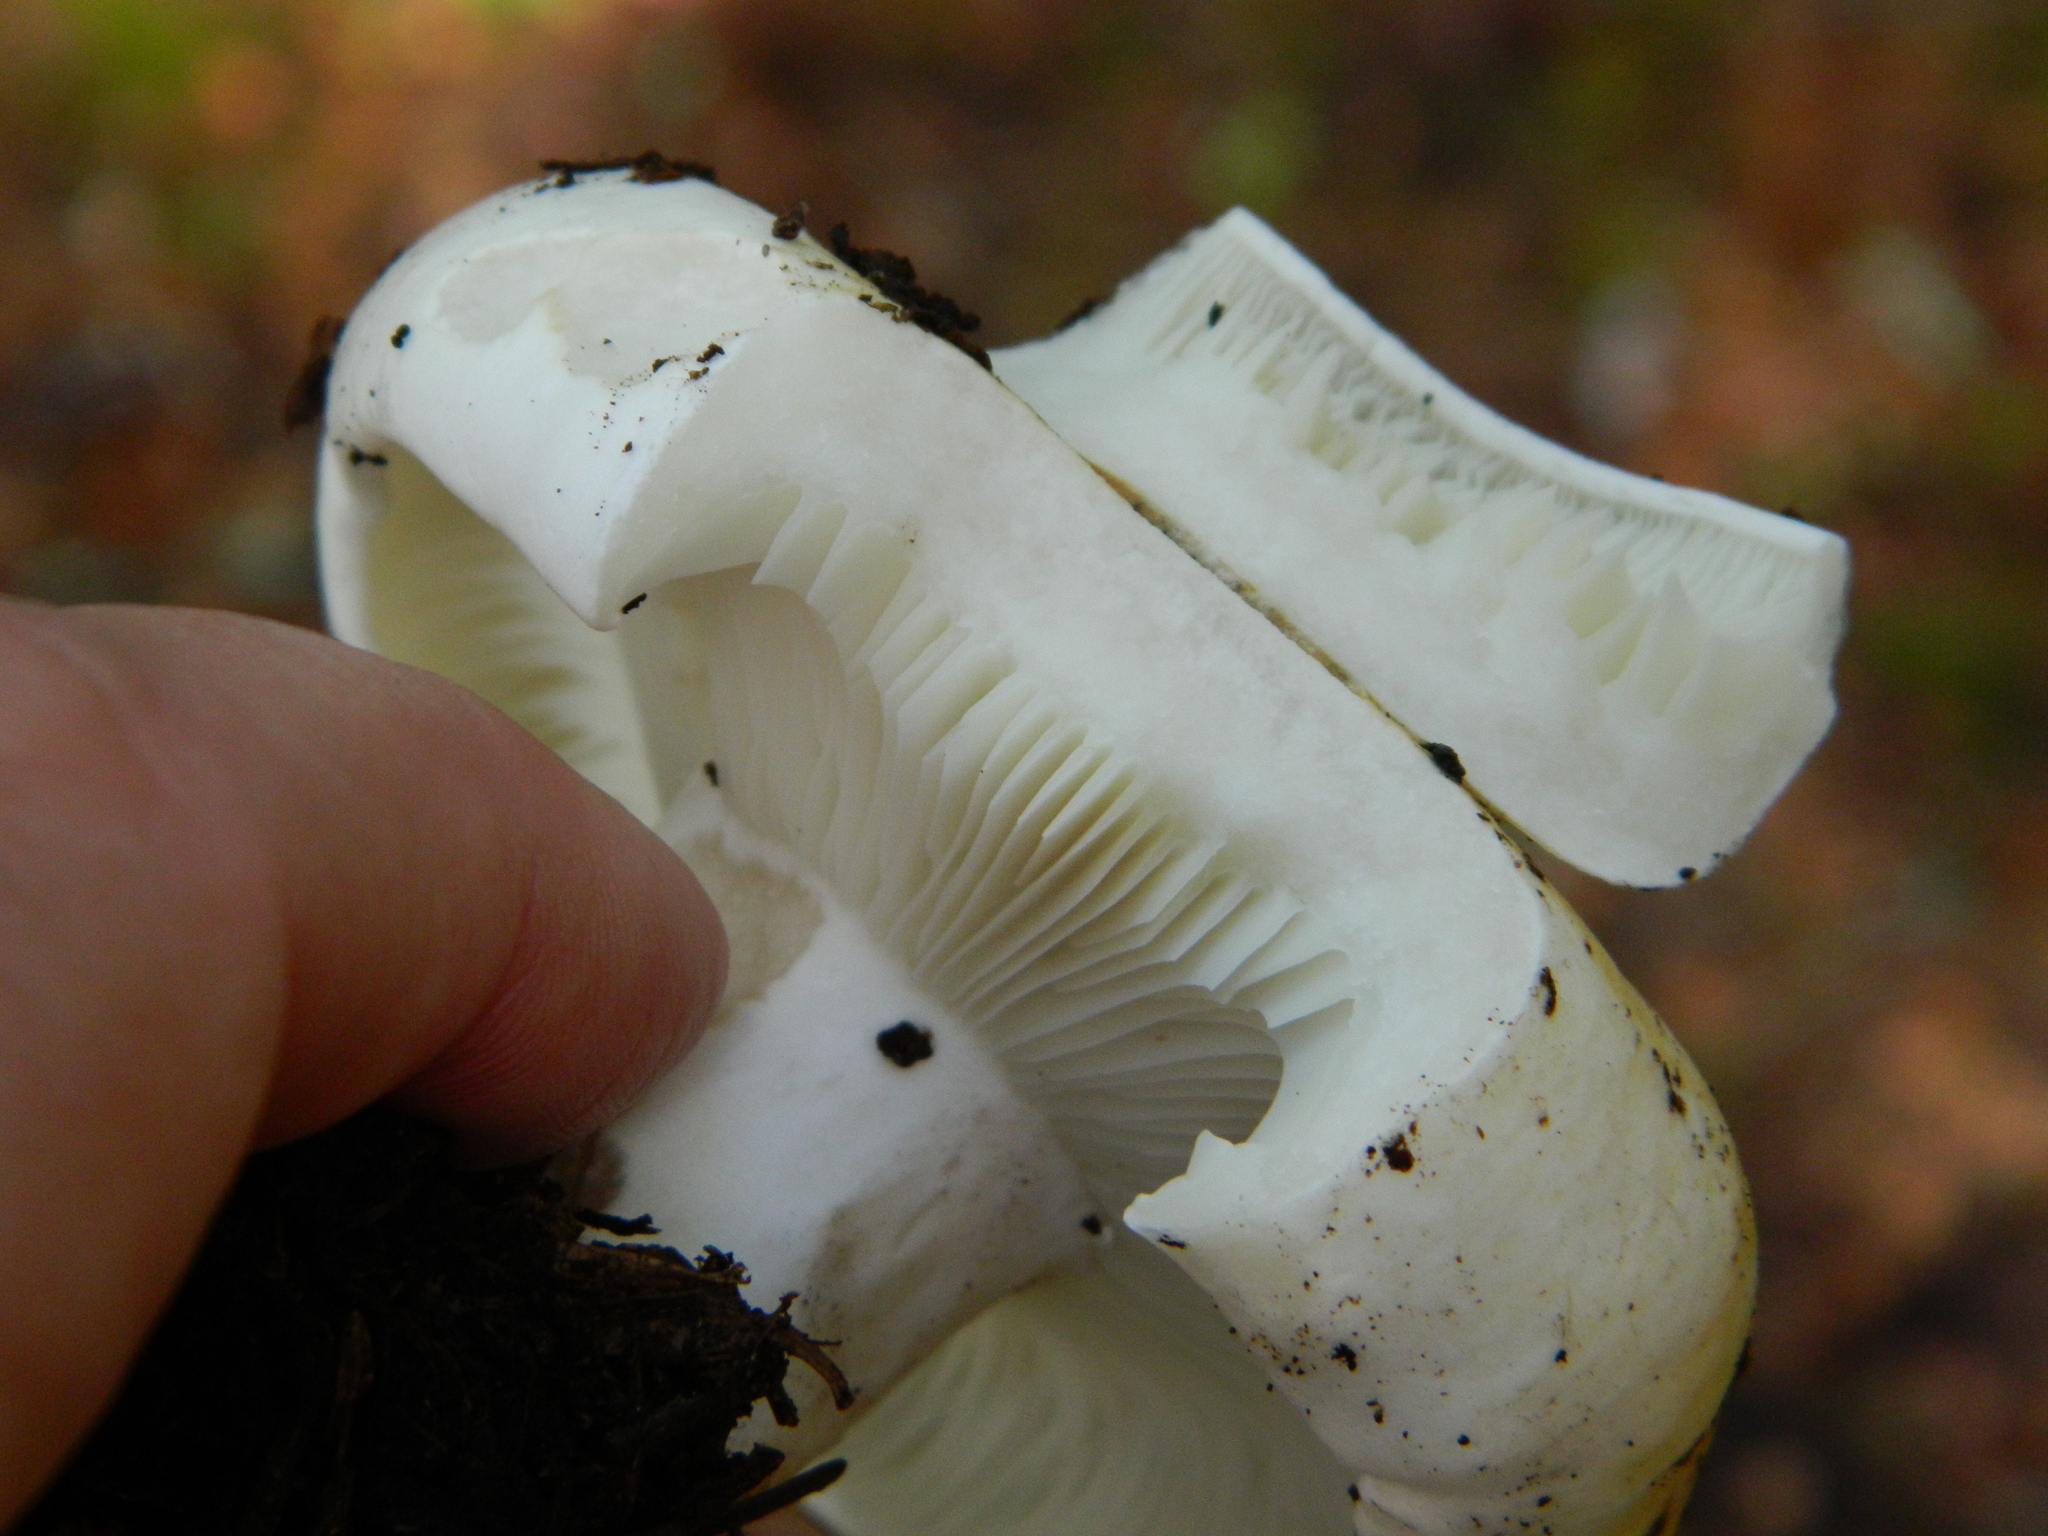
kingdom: Fungi
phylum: Basidiomycota
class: Agaricomycetes
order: Russulales
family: Russulaceae
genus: Russula
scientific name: Russula brevipes
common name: Short-stemmed russula
